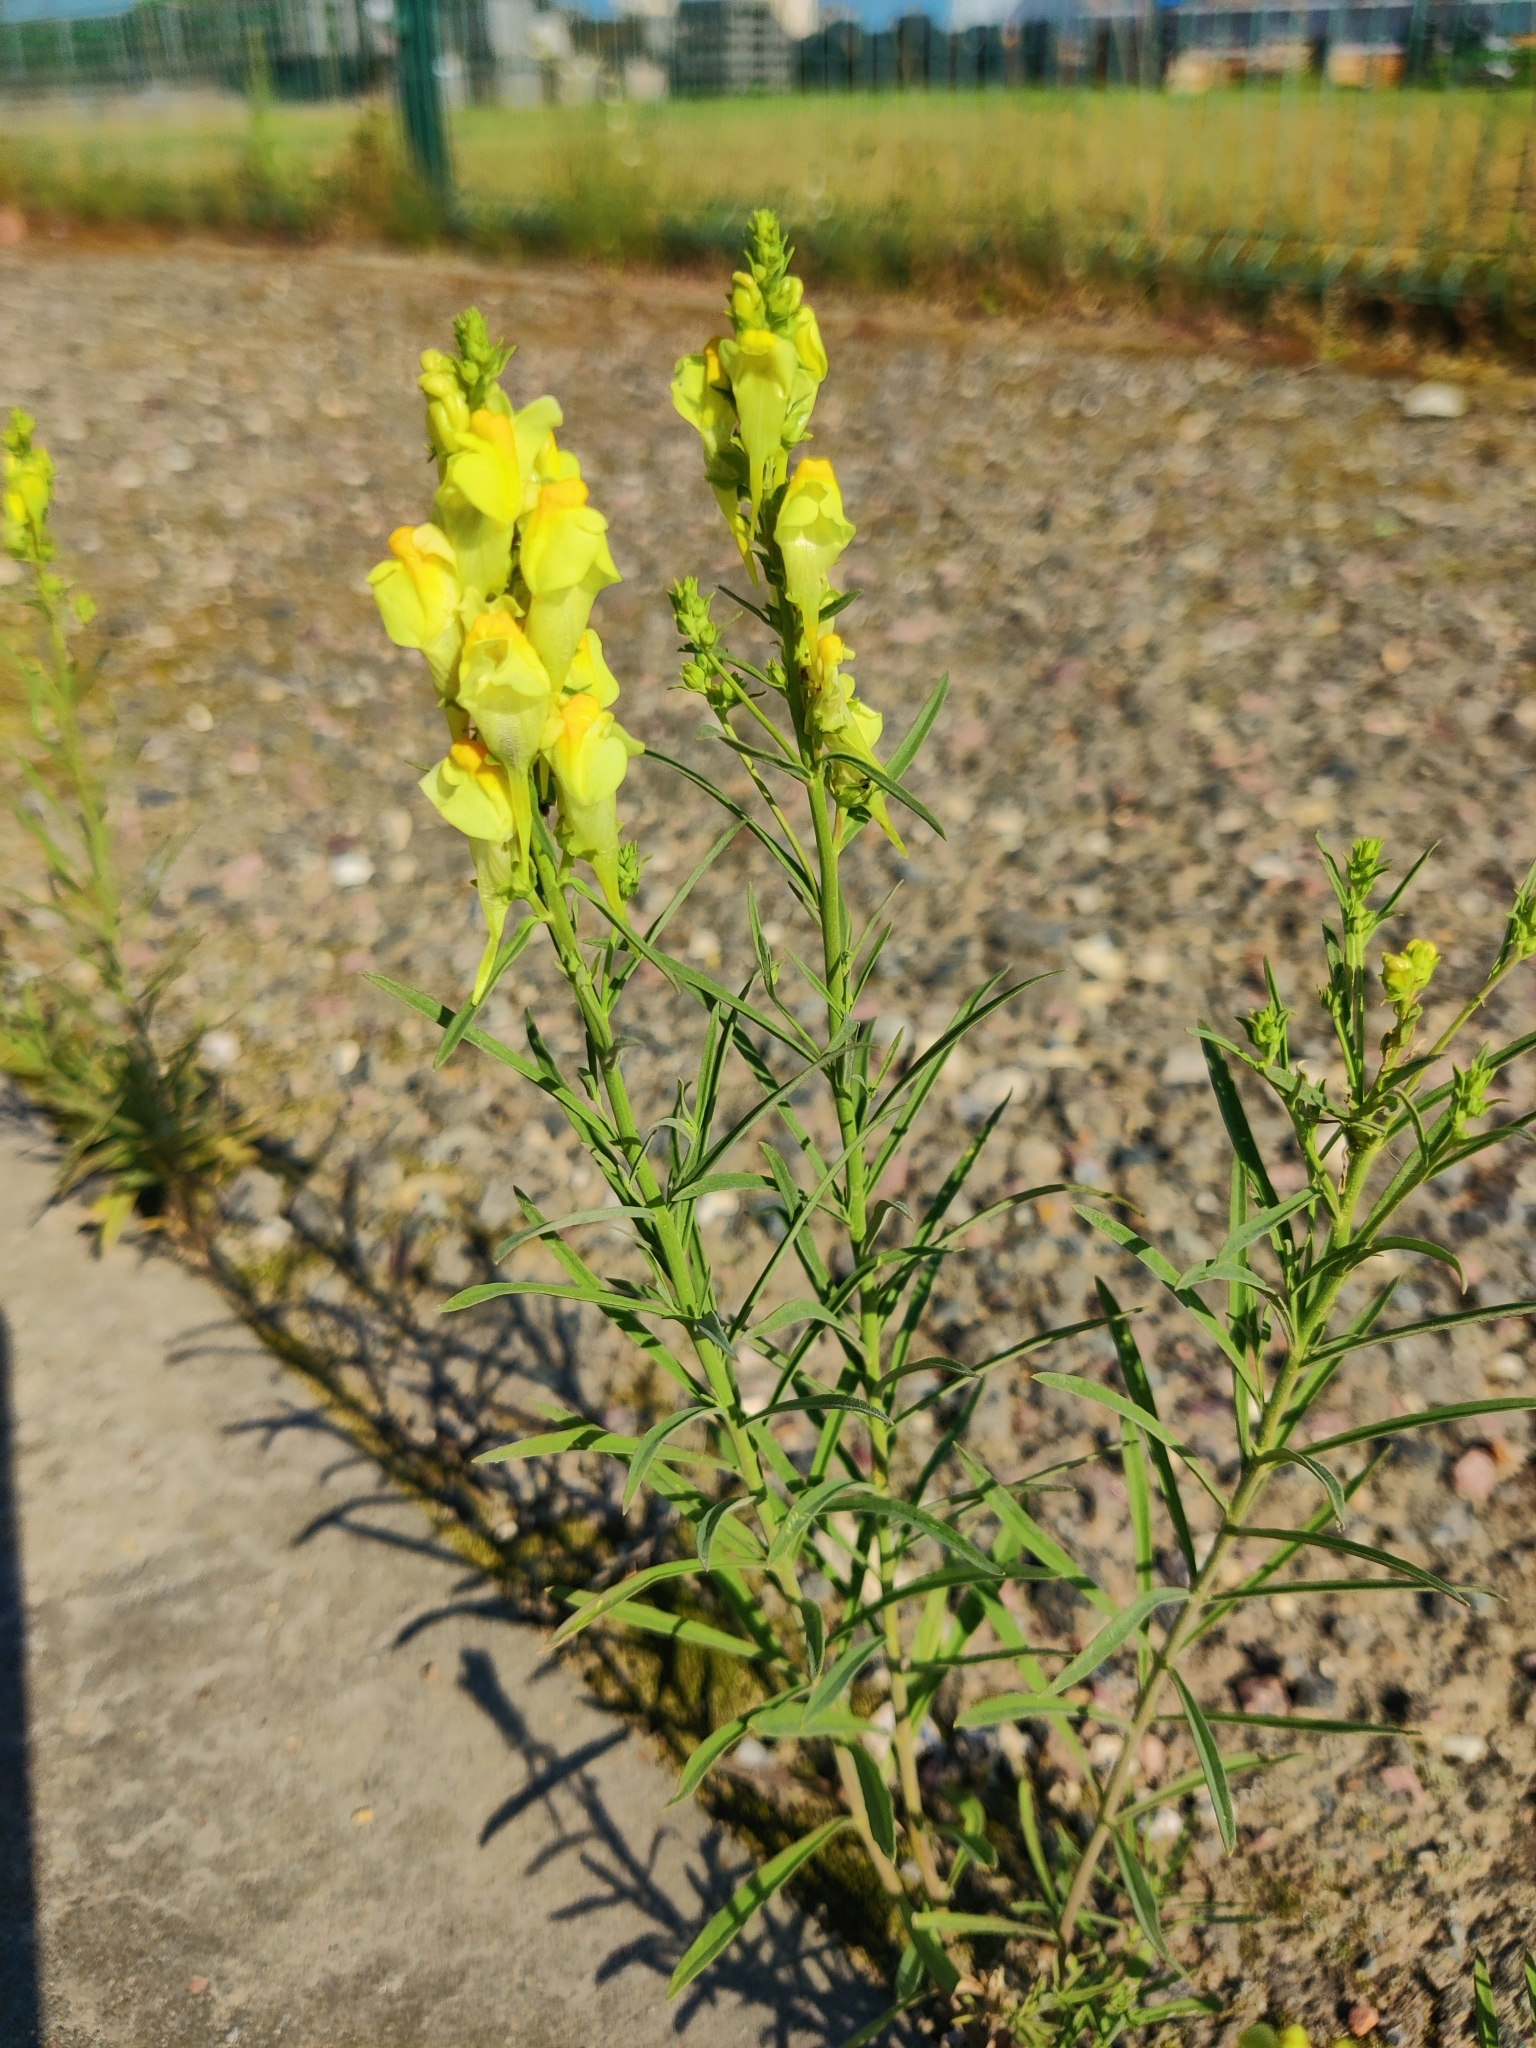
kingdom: Plantae
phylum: Tracheophyta
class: Magnoliopsida
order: Lamiales
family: Plantaginaceae
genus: Linaria
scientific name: Linaria vulgaris
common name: Butter and eggs
